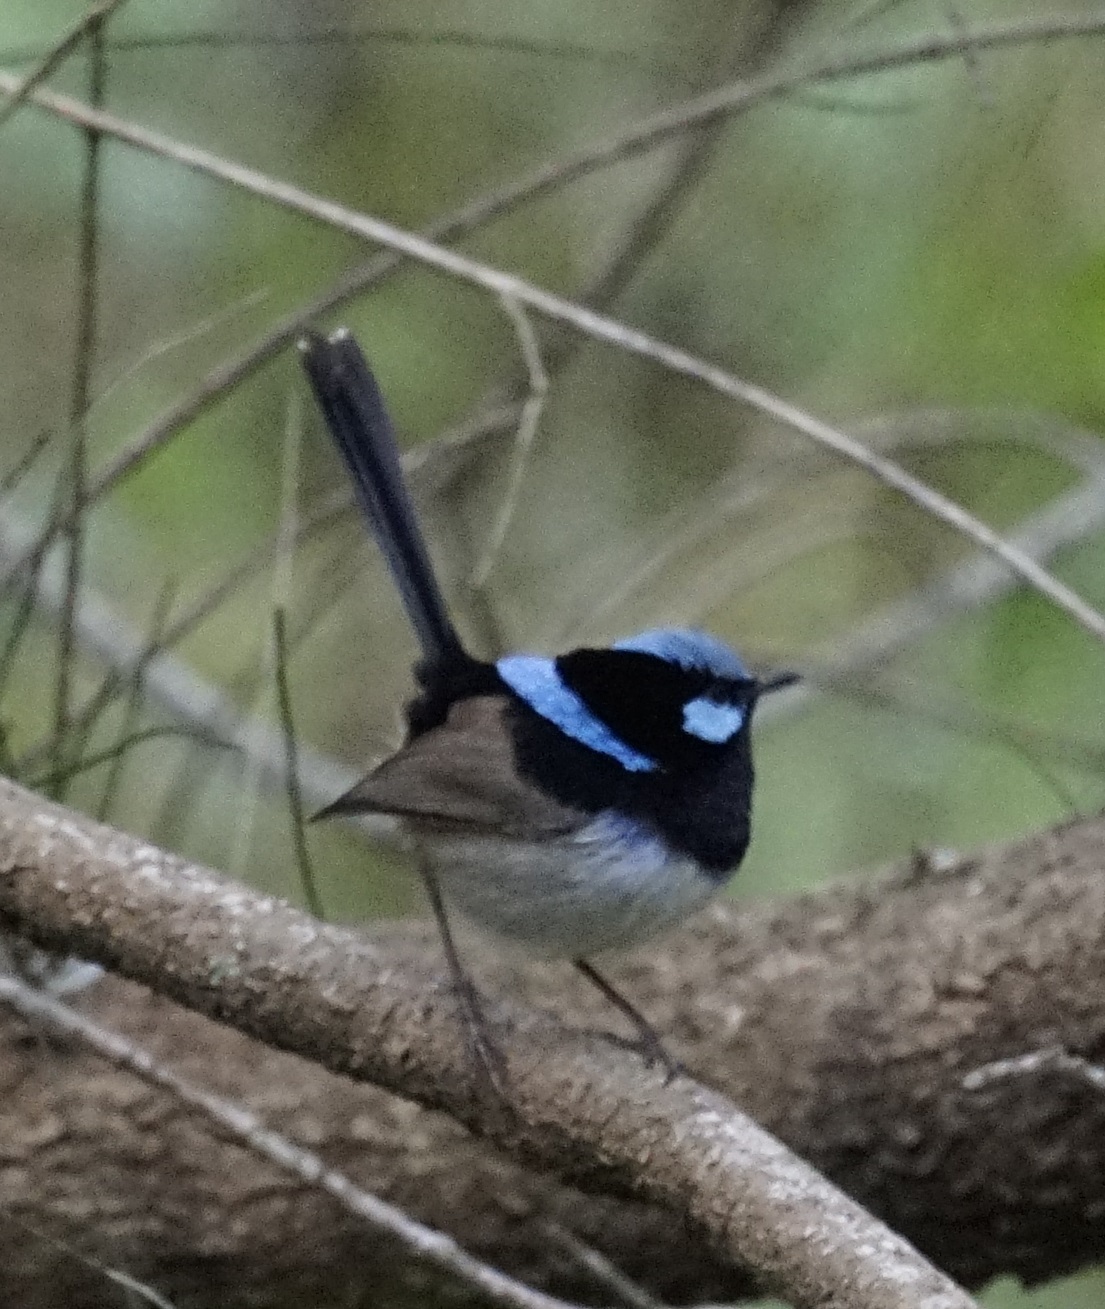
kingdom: Animalia
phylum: Chordata
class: Aves
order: Passeriformes
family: Maluridae
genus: Malurus
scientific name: Malurus cyaneus
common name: Superb fairywren
